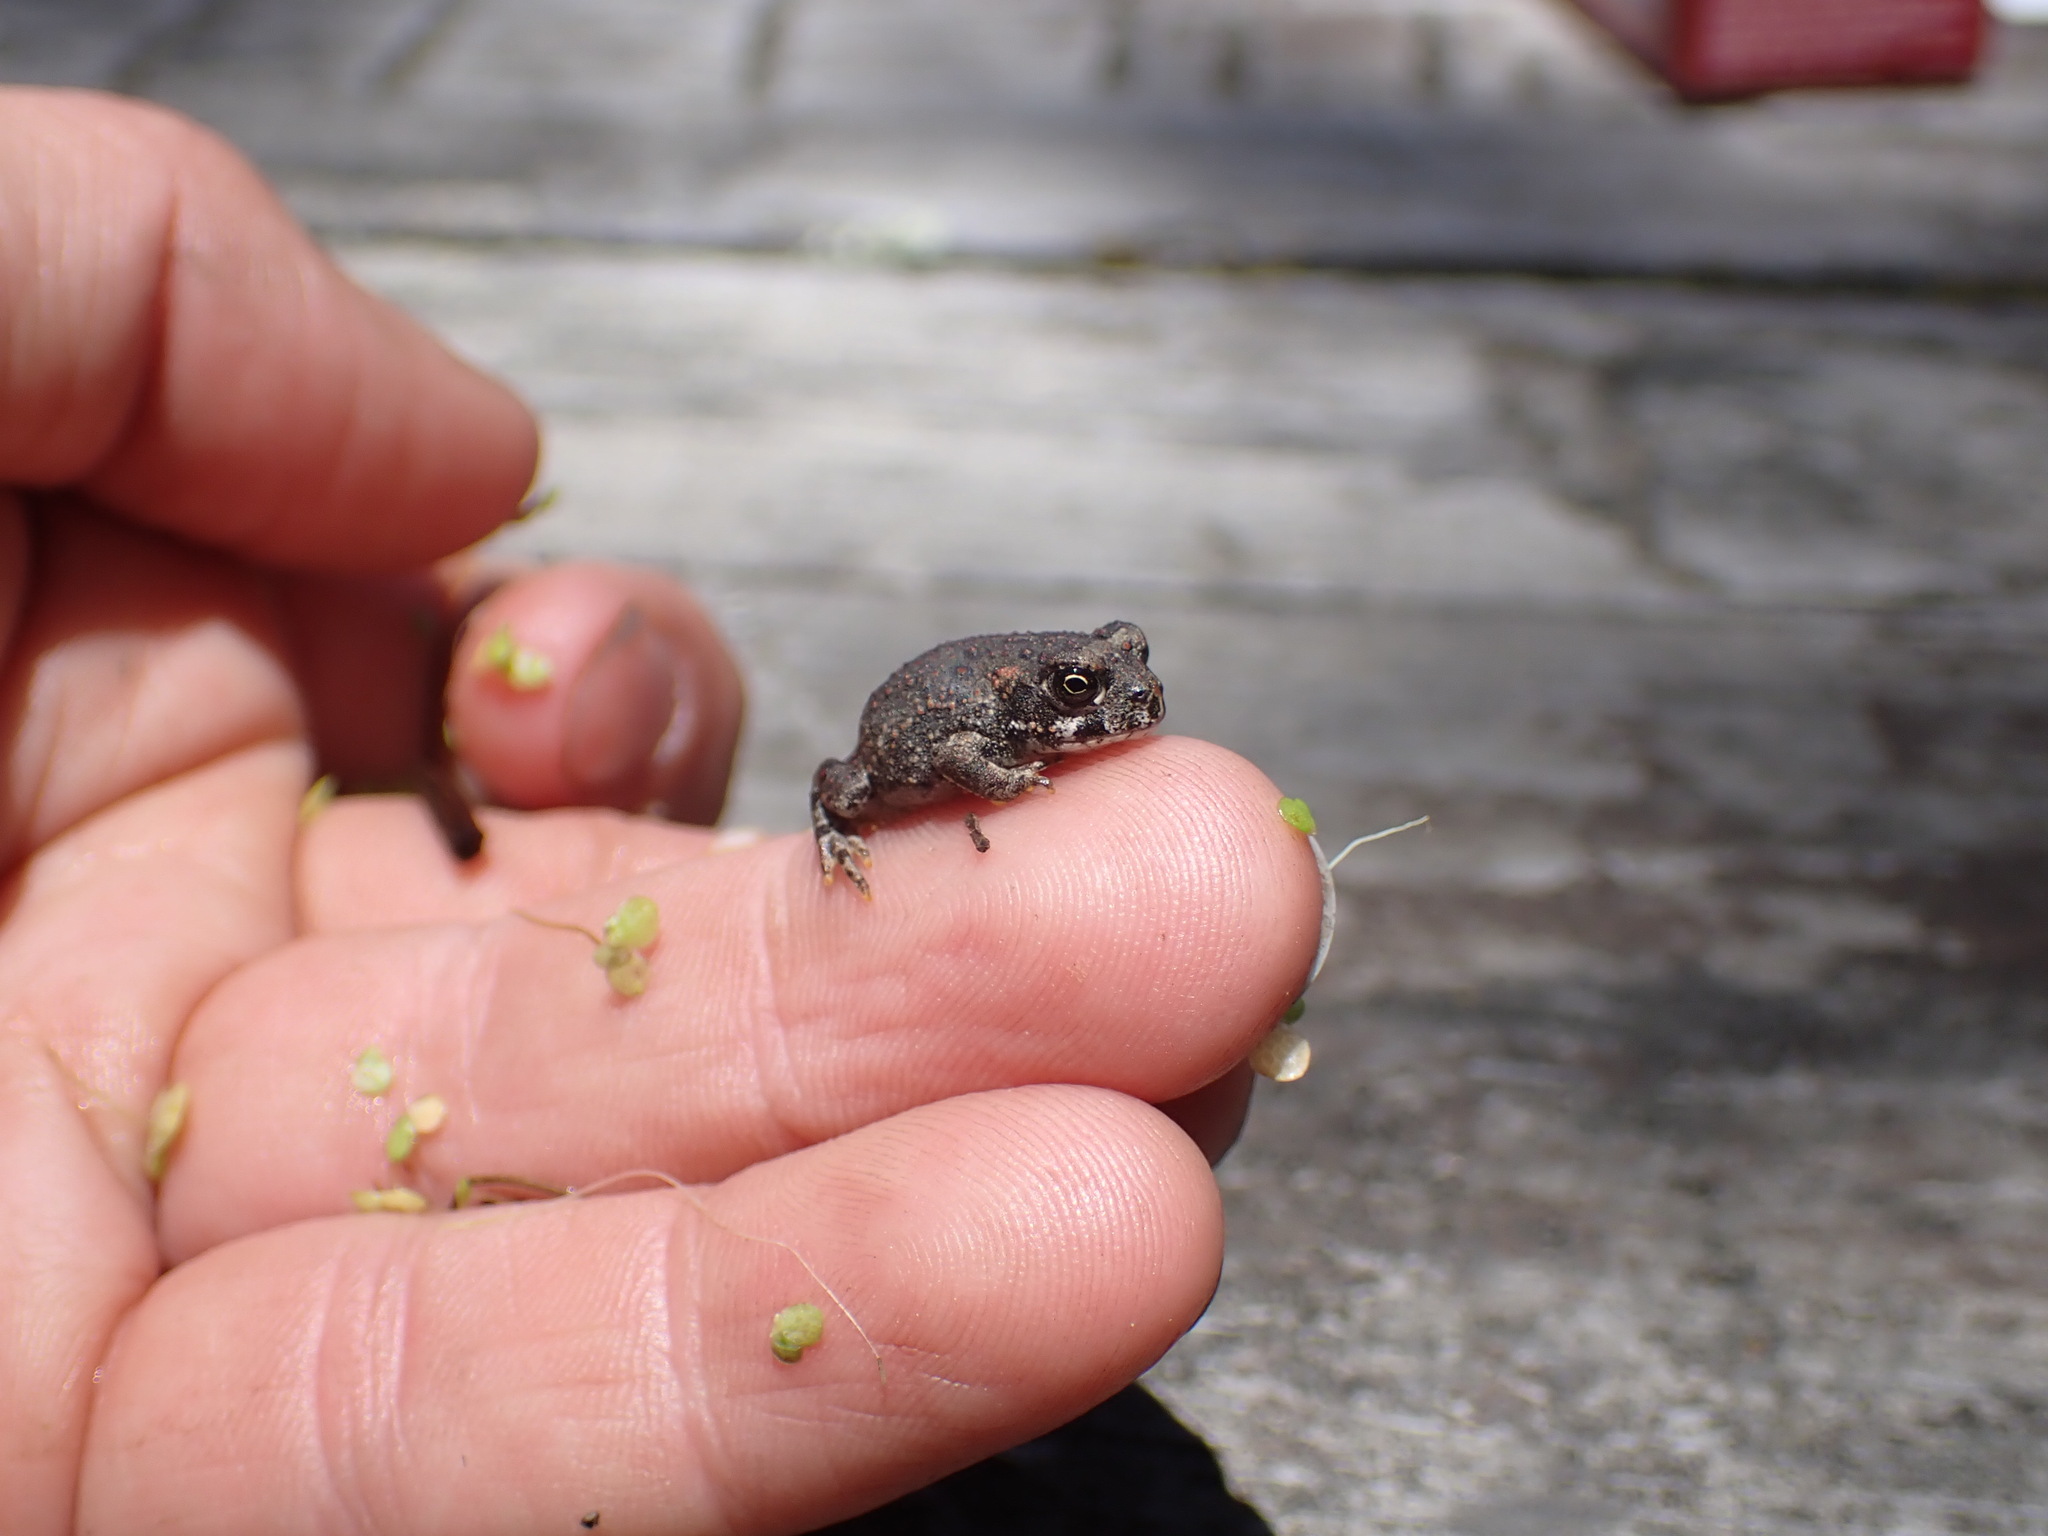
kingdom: Animalia
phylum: Chordata
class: Amphibia
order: Anura
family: Bufonidae
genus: Anaxyrus
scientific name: Anaxyrus boreas
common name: Western toad
